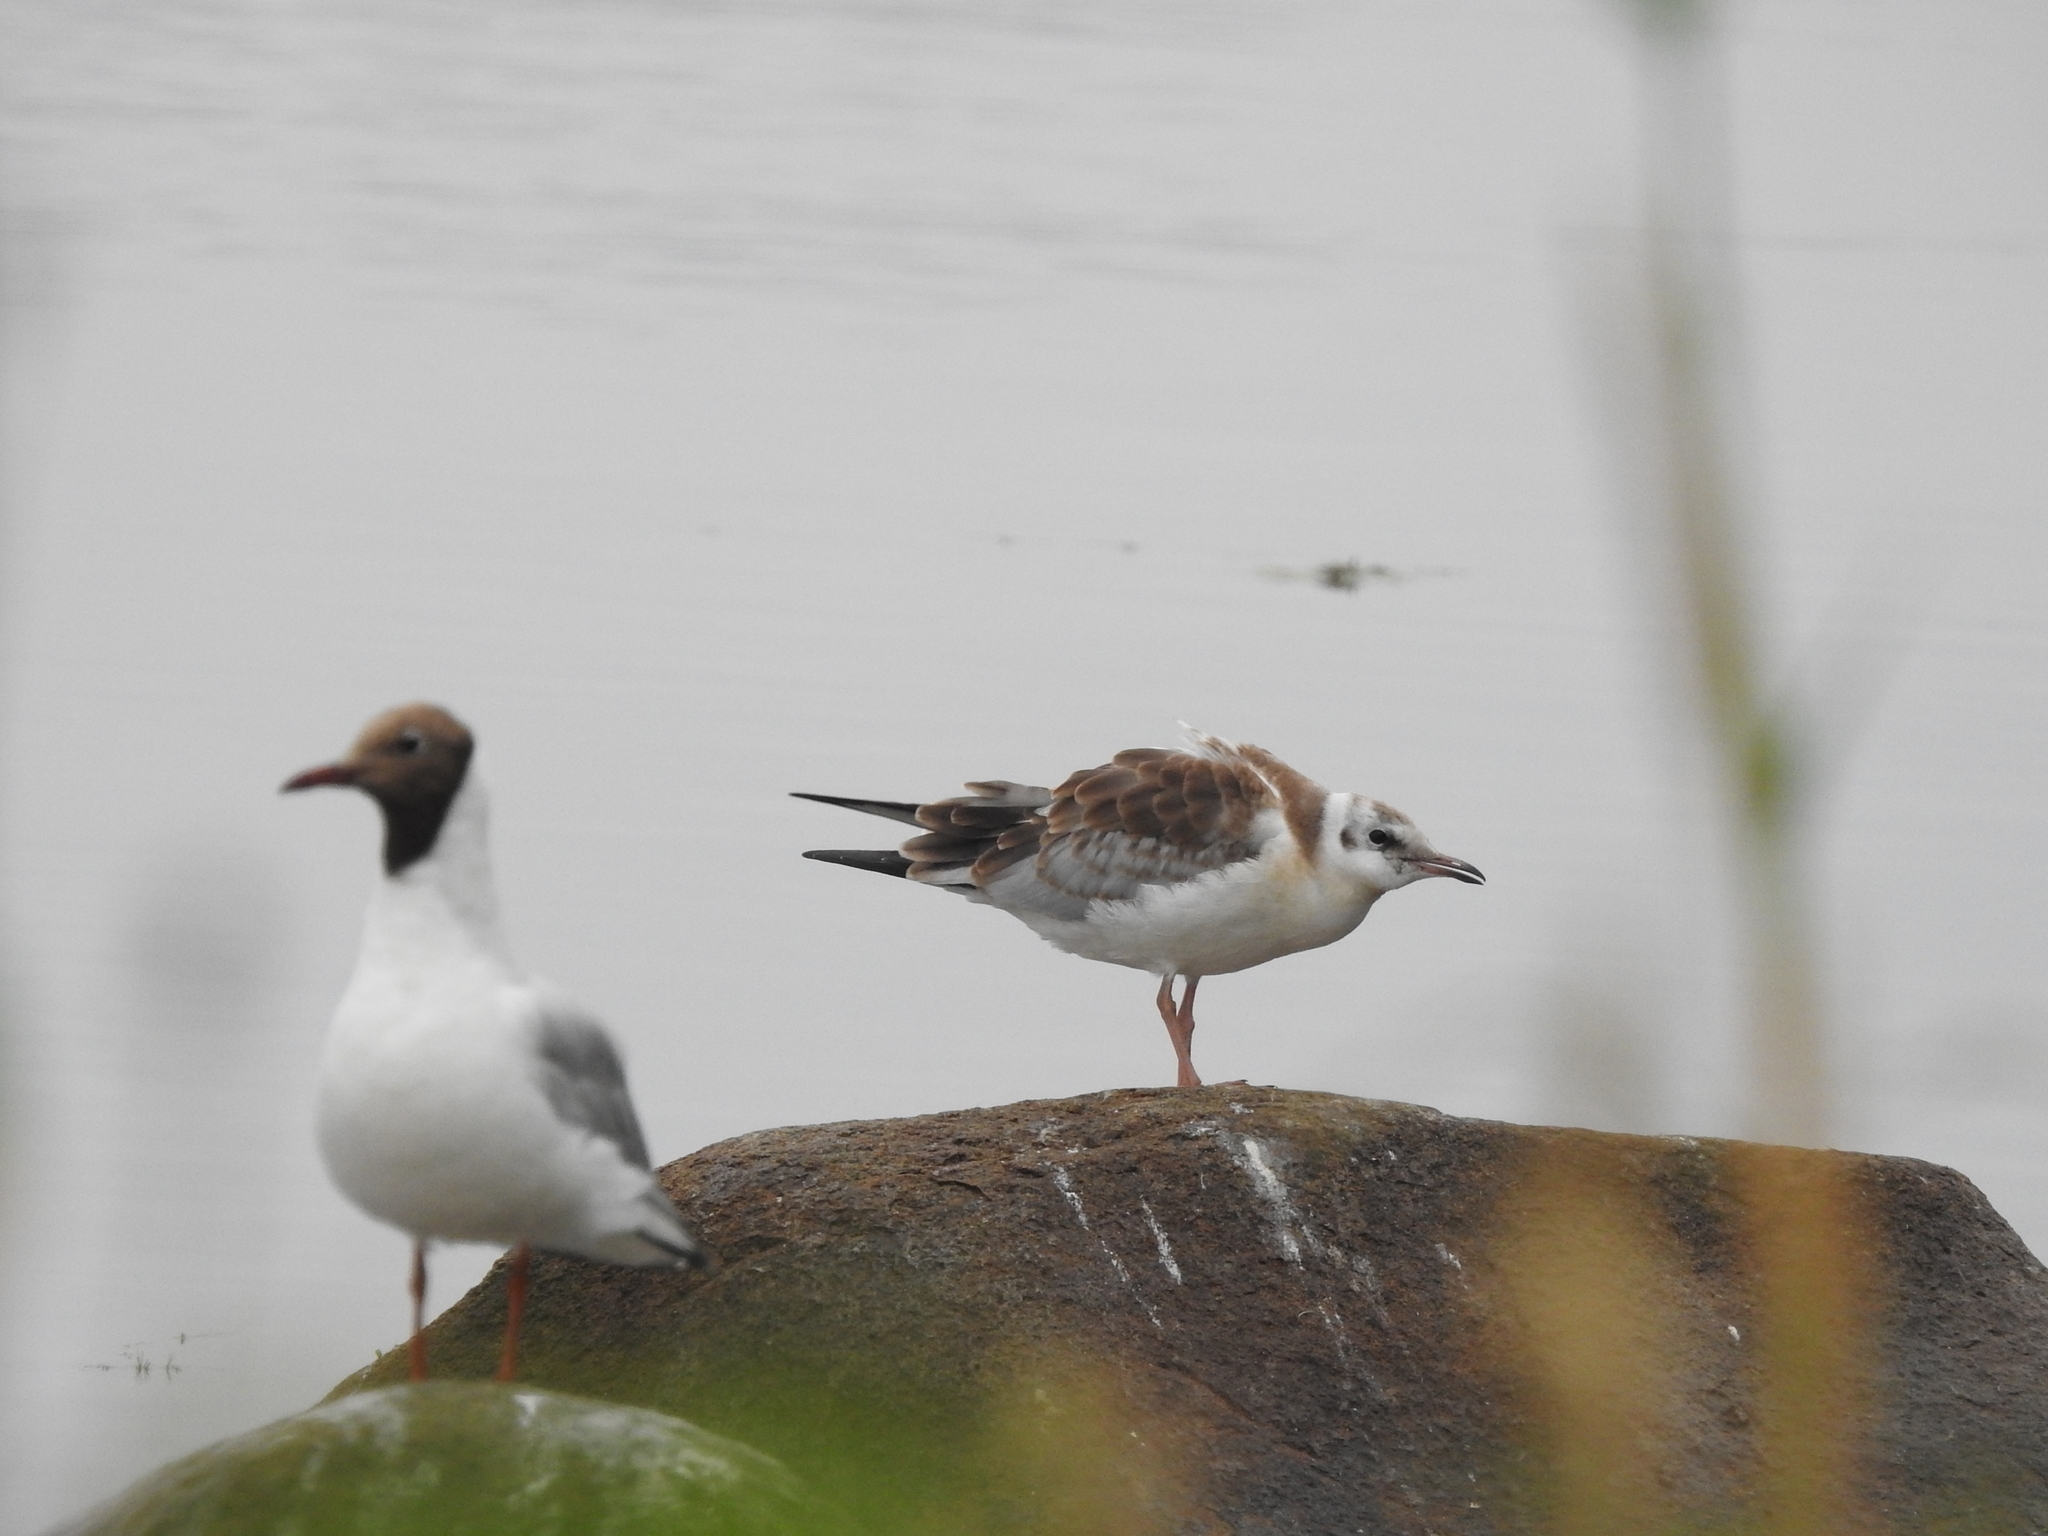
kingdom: Animalia
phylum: Chordata
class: Aves
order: Charadriiformes
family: Laridae
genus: Chroicocephalus
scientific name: Chroicocephalus ridibundus
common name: Black-headed gull
